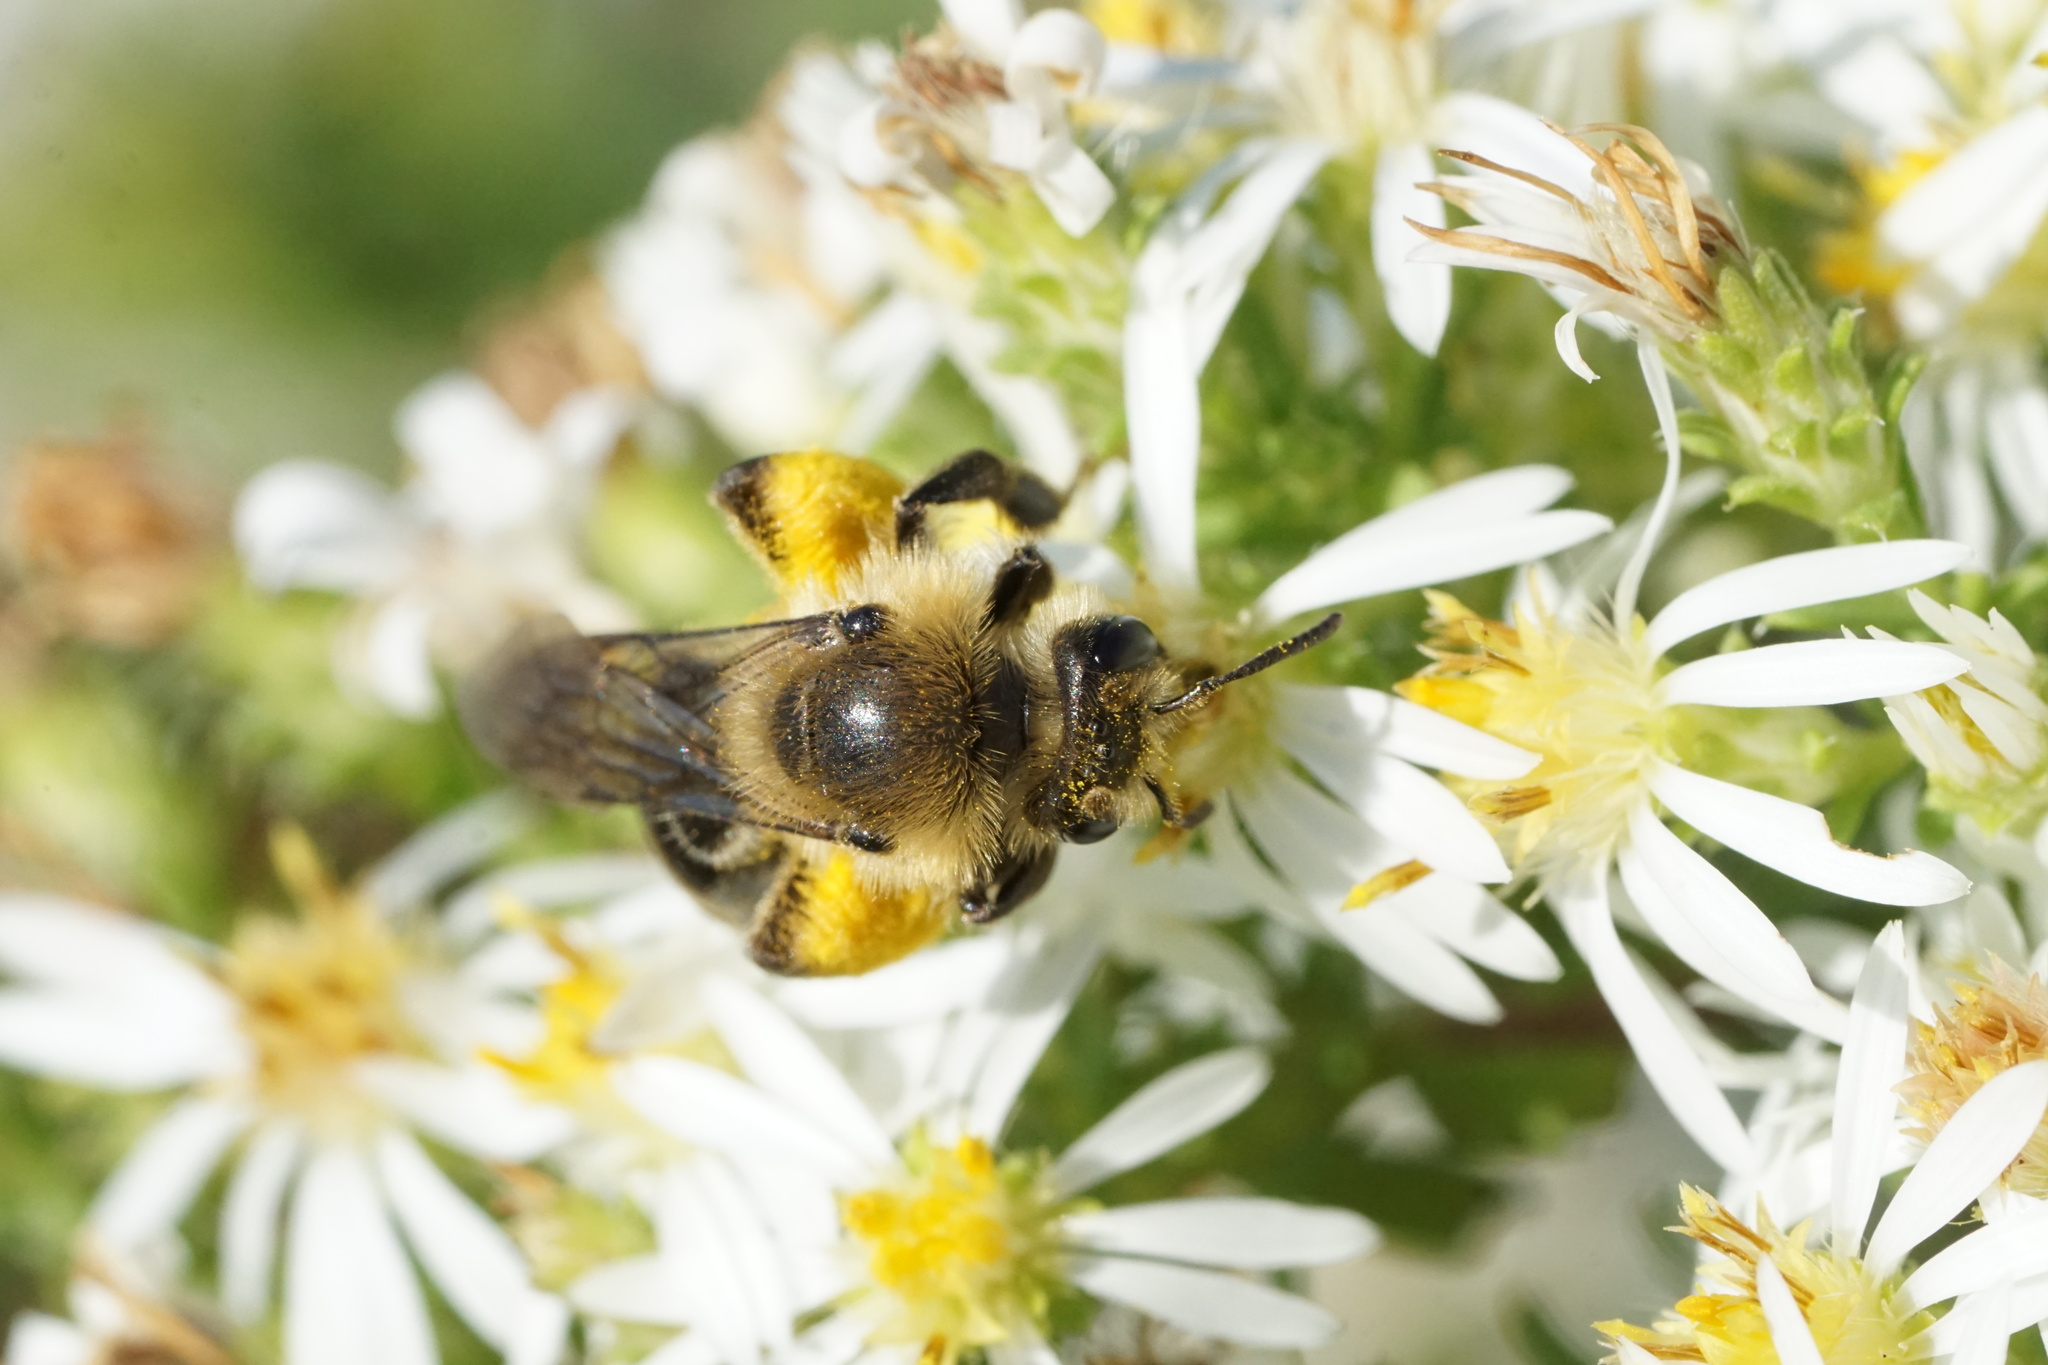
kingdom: Animalia
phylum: Arthropoda
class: Insecta
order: Hymenoptera
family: Andrenidae
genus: Andrena
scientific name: Andrena asteris
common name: Aster mining bee
